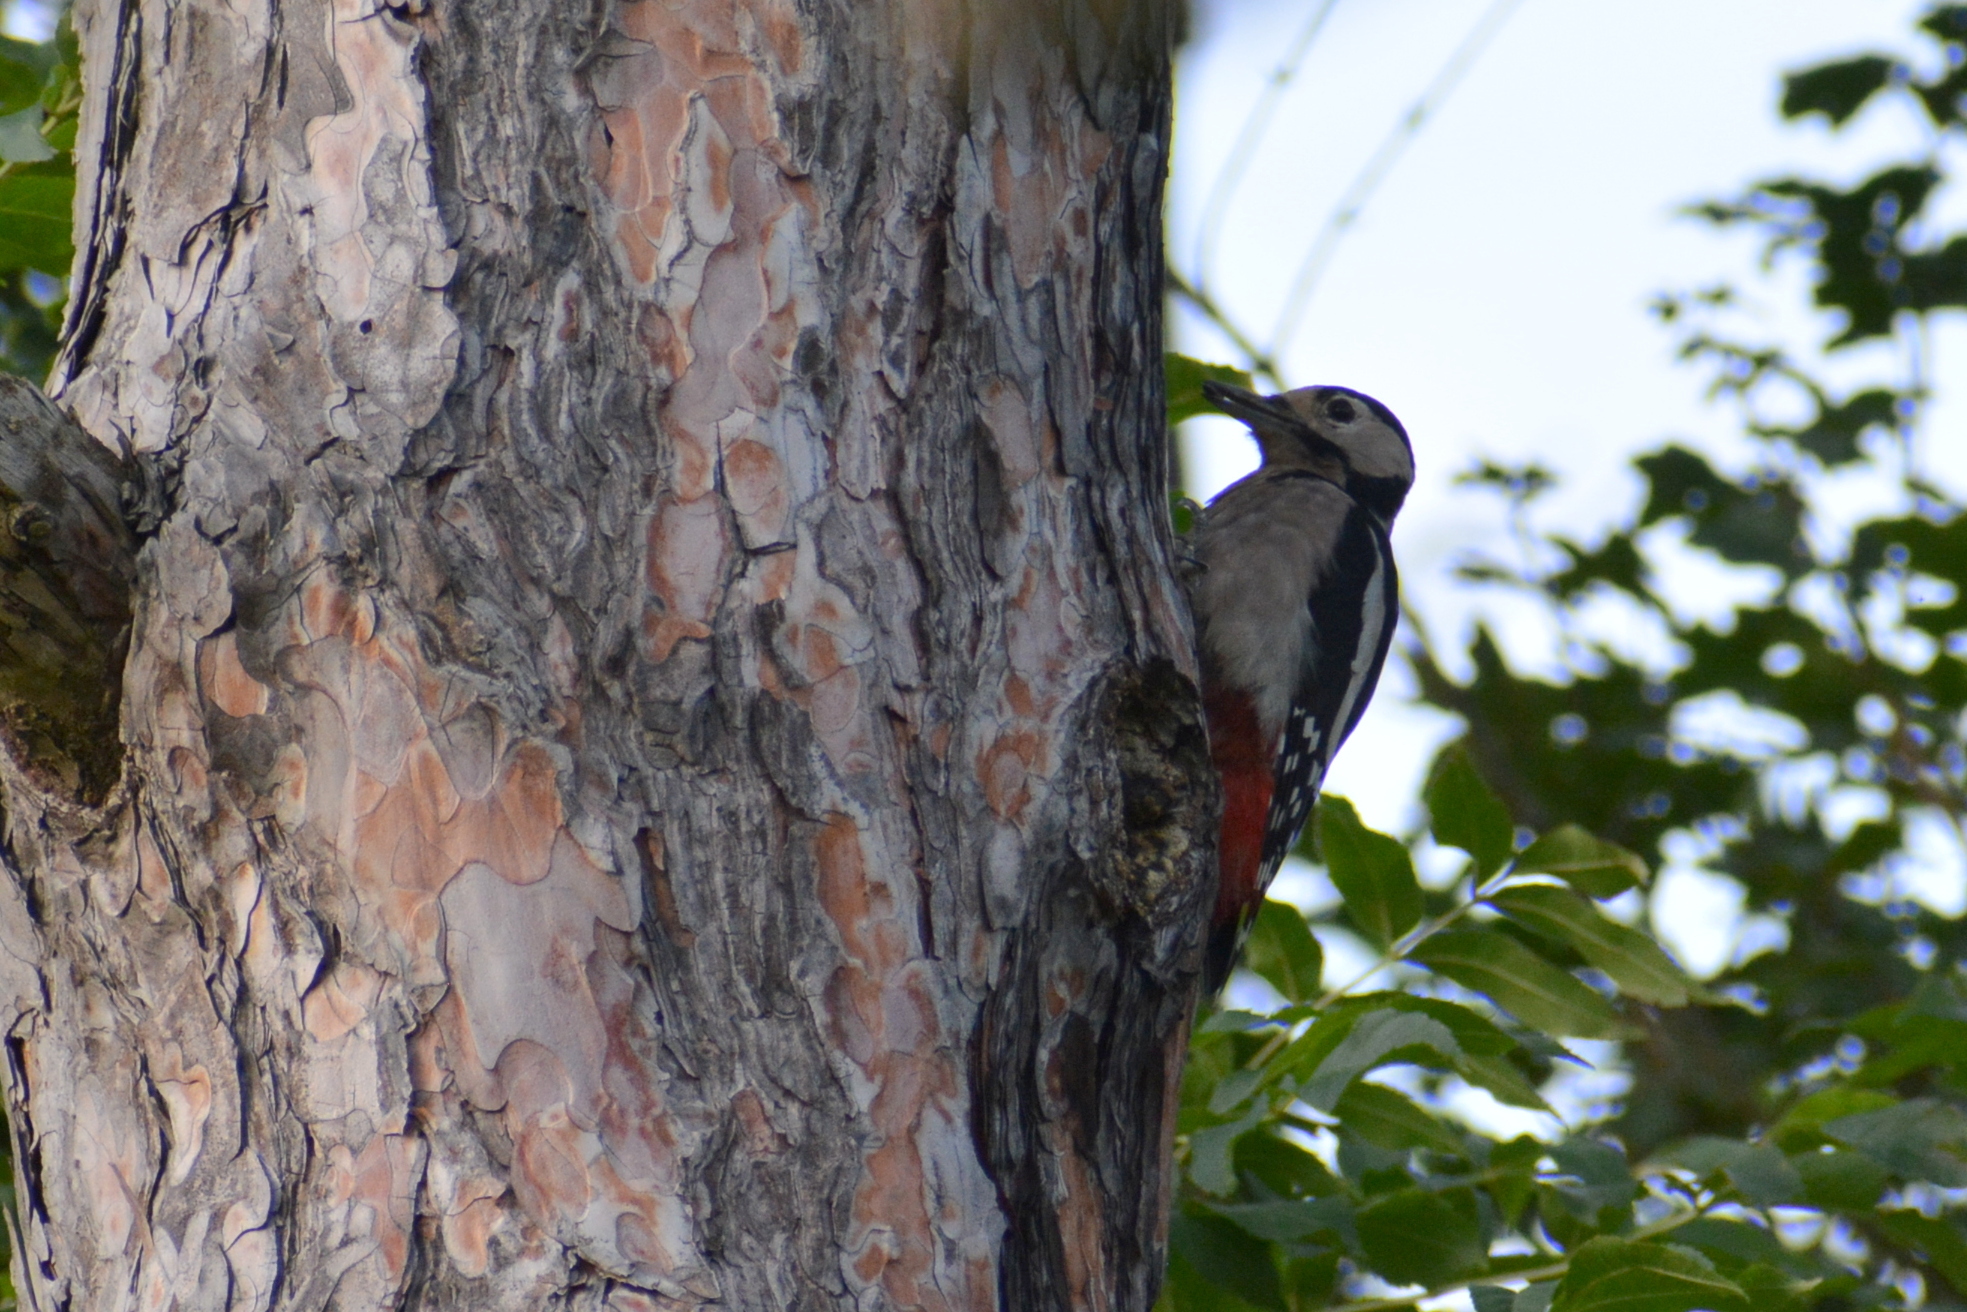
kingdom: Animalia
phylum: Chordata
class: Aves
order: Piciformes
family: Picidae
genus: Dendrocopos
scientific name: Dendrocopos major
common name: Great spotted woodpecker
